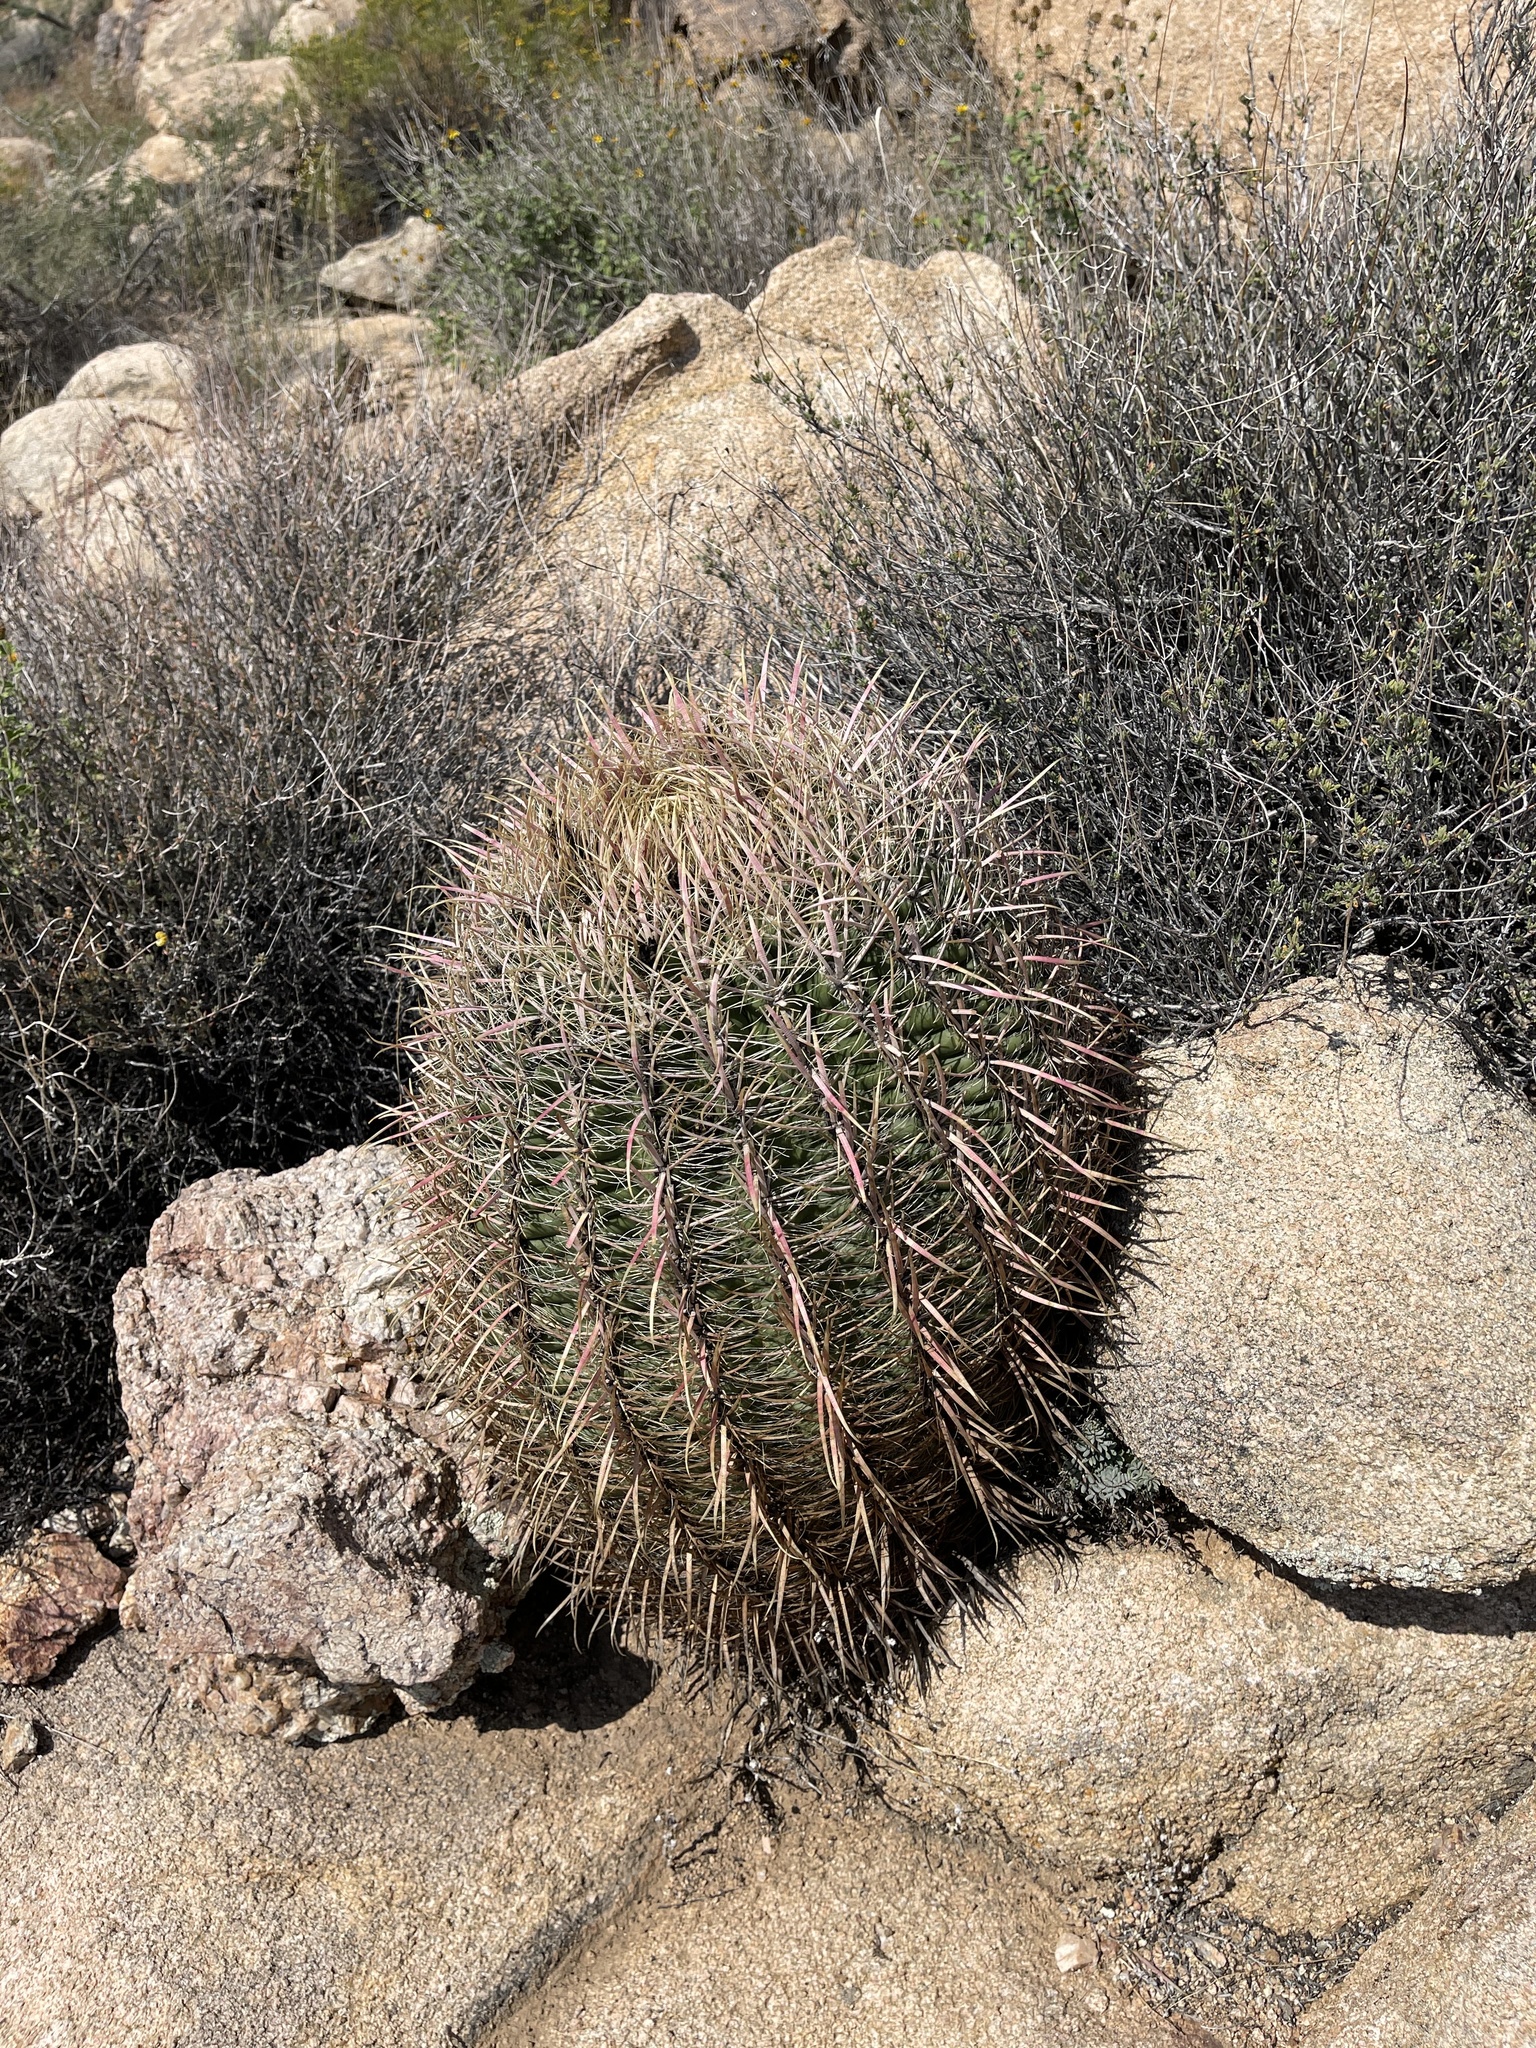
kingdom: Plantae
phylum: Tracheophyta
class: Magnoliopsida
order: Caryophyllales
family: Cactaceae
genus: Ferocactus
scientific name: Ferocactus cylindraceus
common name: California barrel cactus
